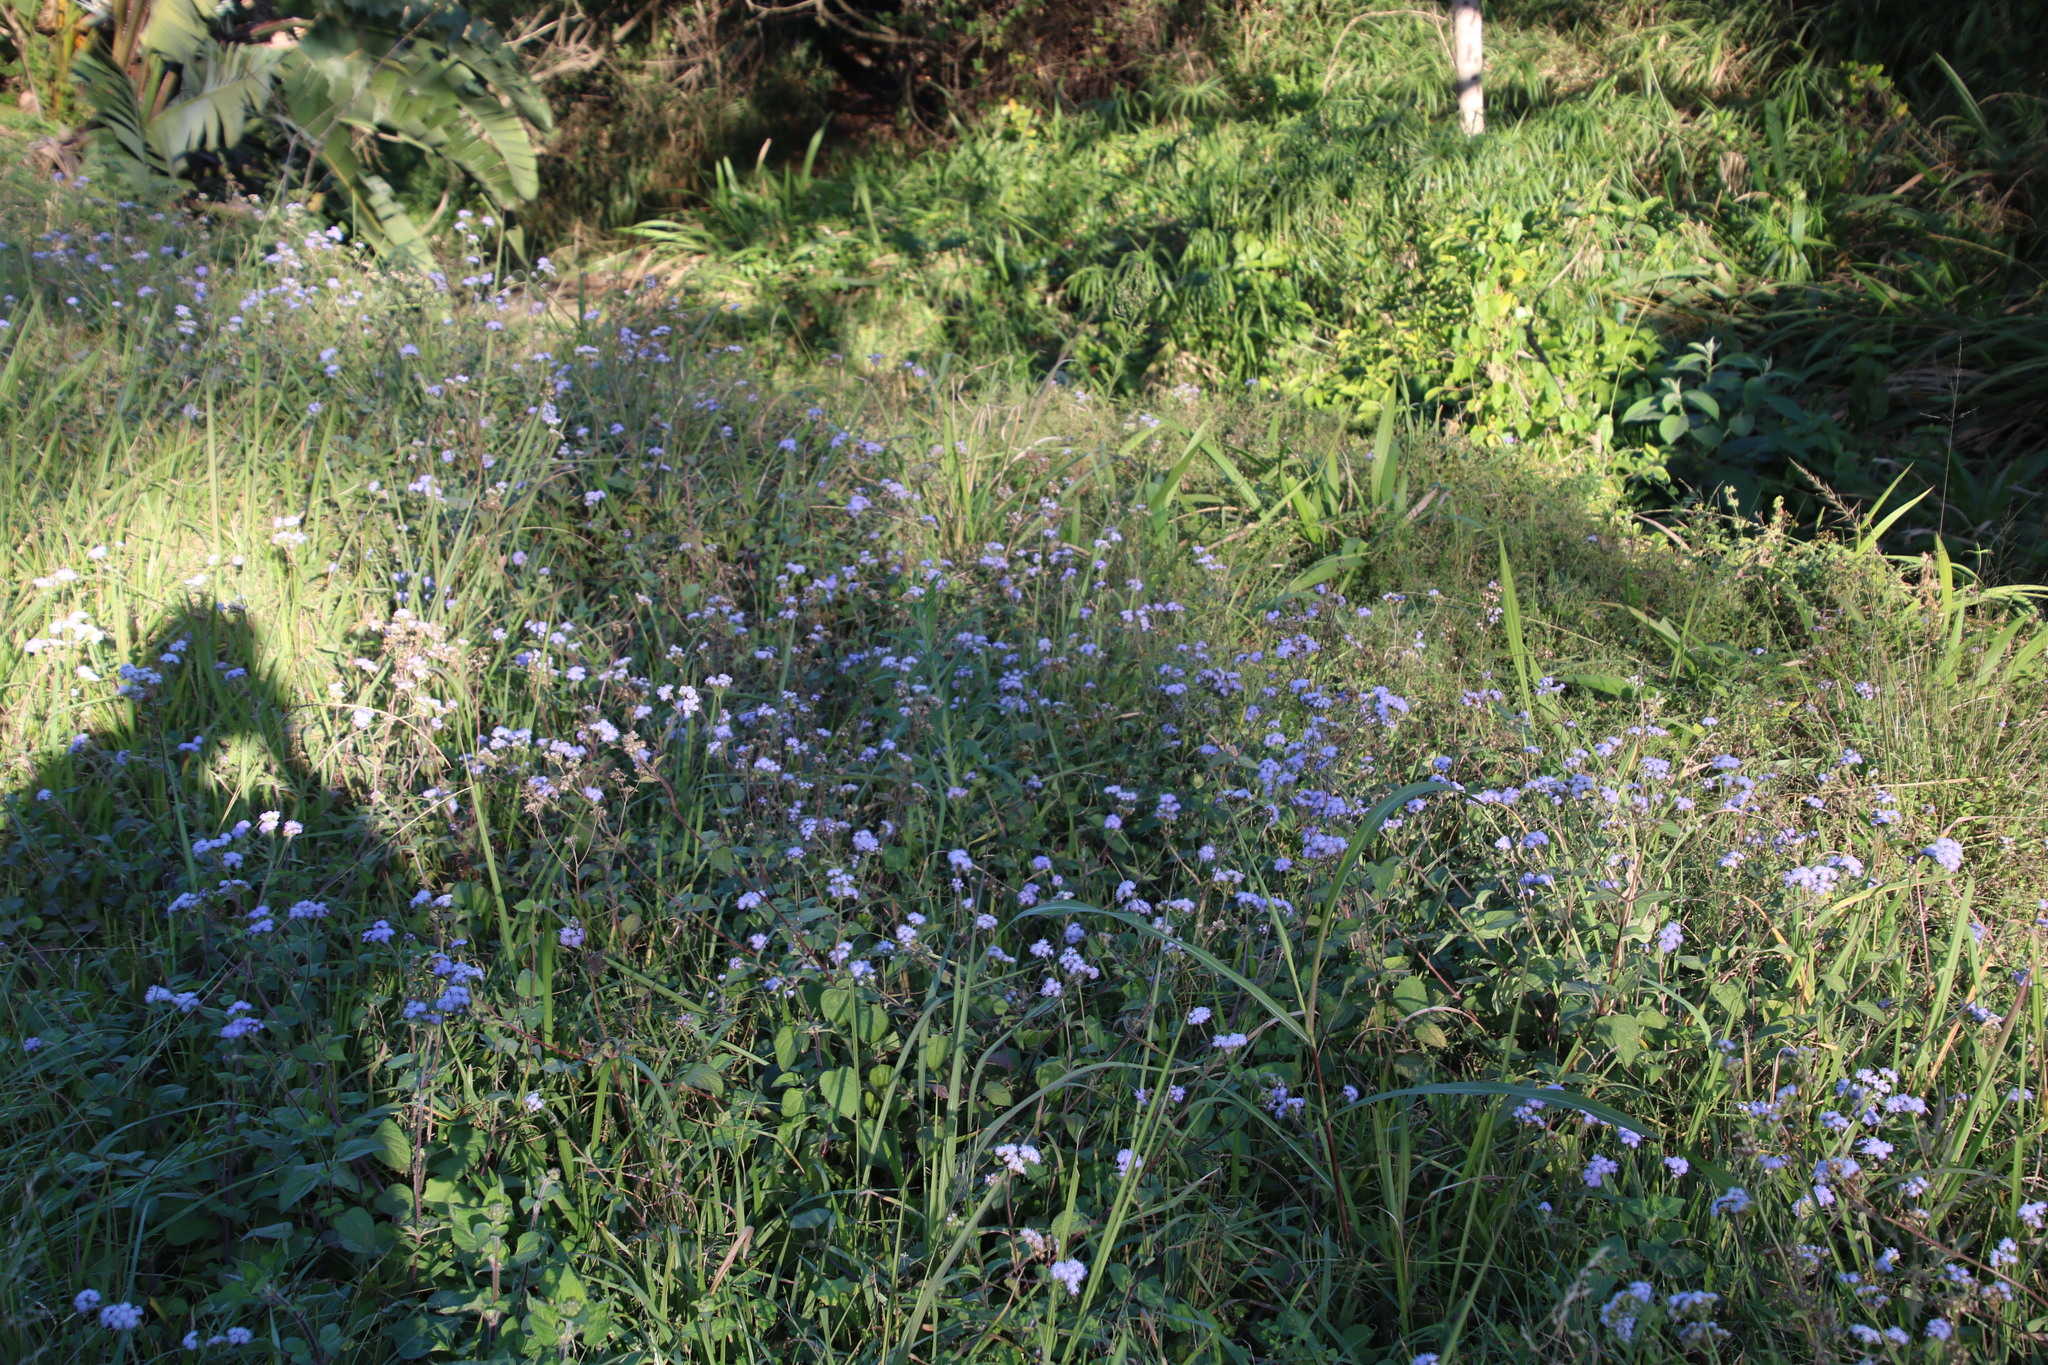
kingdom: Plantae
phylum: Tracheophyta
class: Magnoliopsida
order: Asterales
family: Asteraceae
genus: Ageratum
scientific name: Ageratum houstonianum
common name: Bluemink
